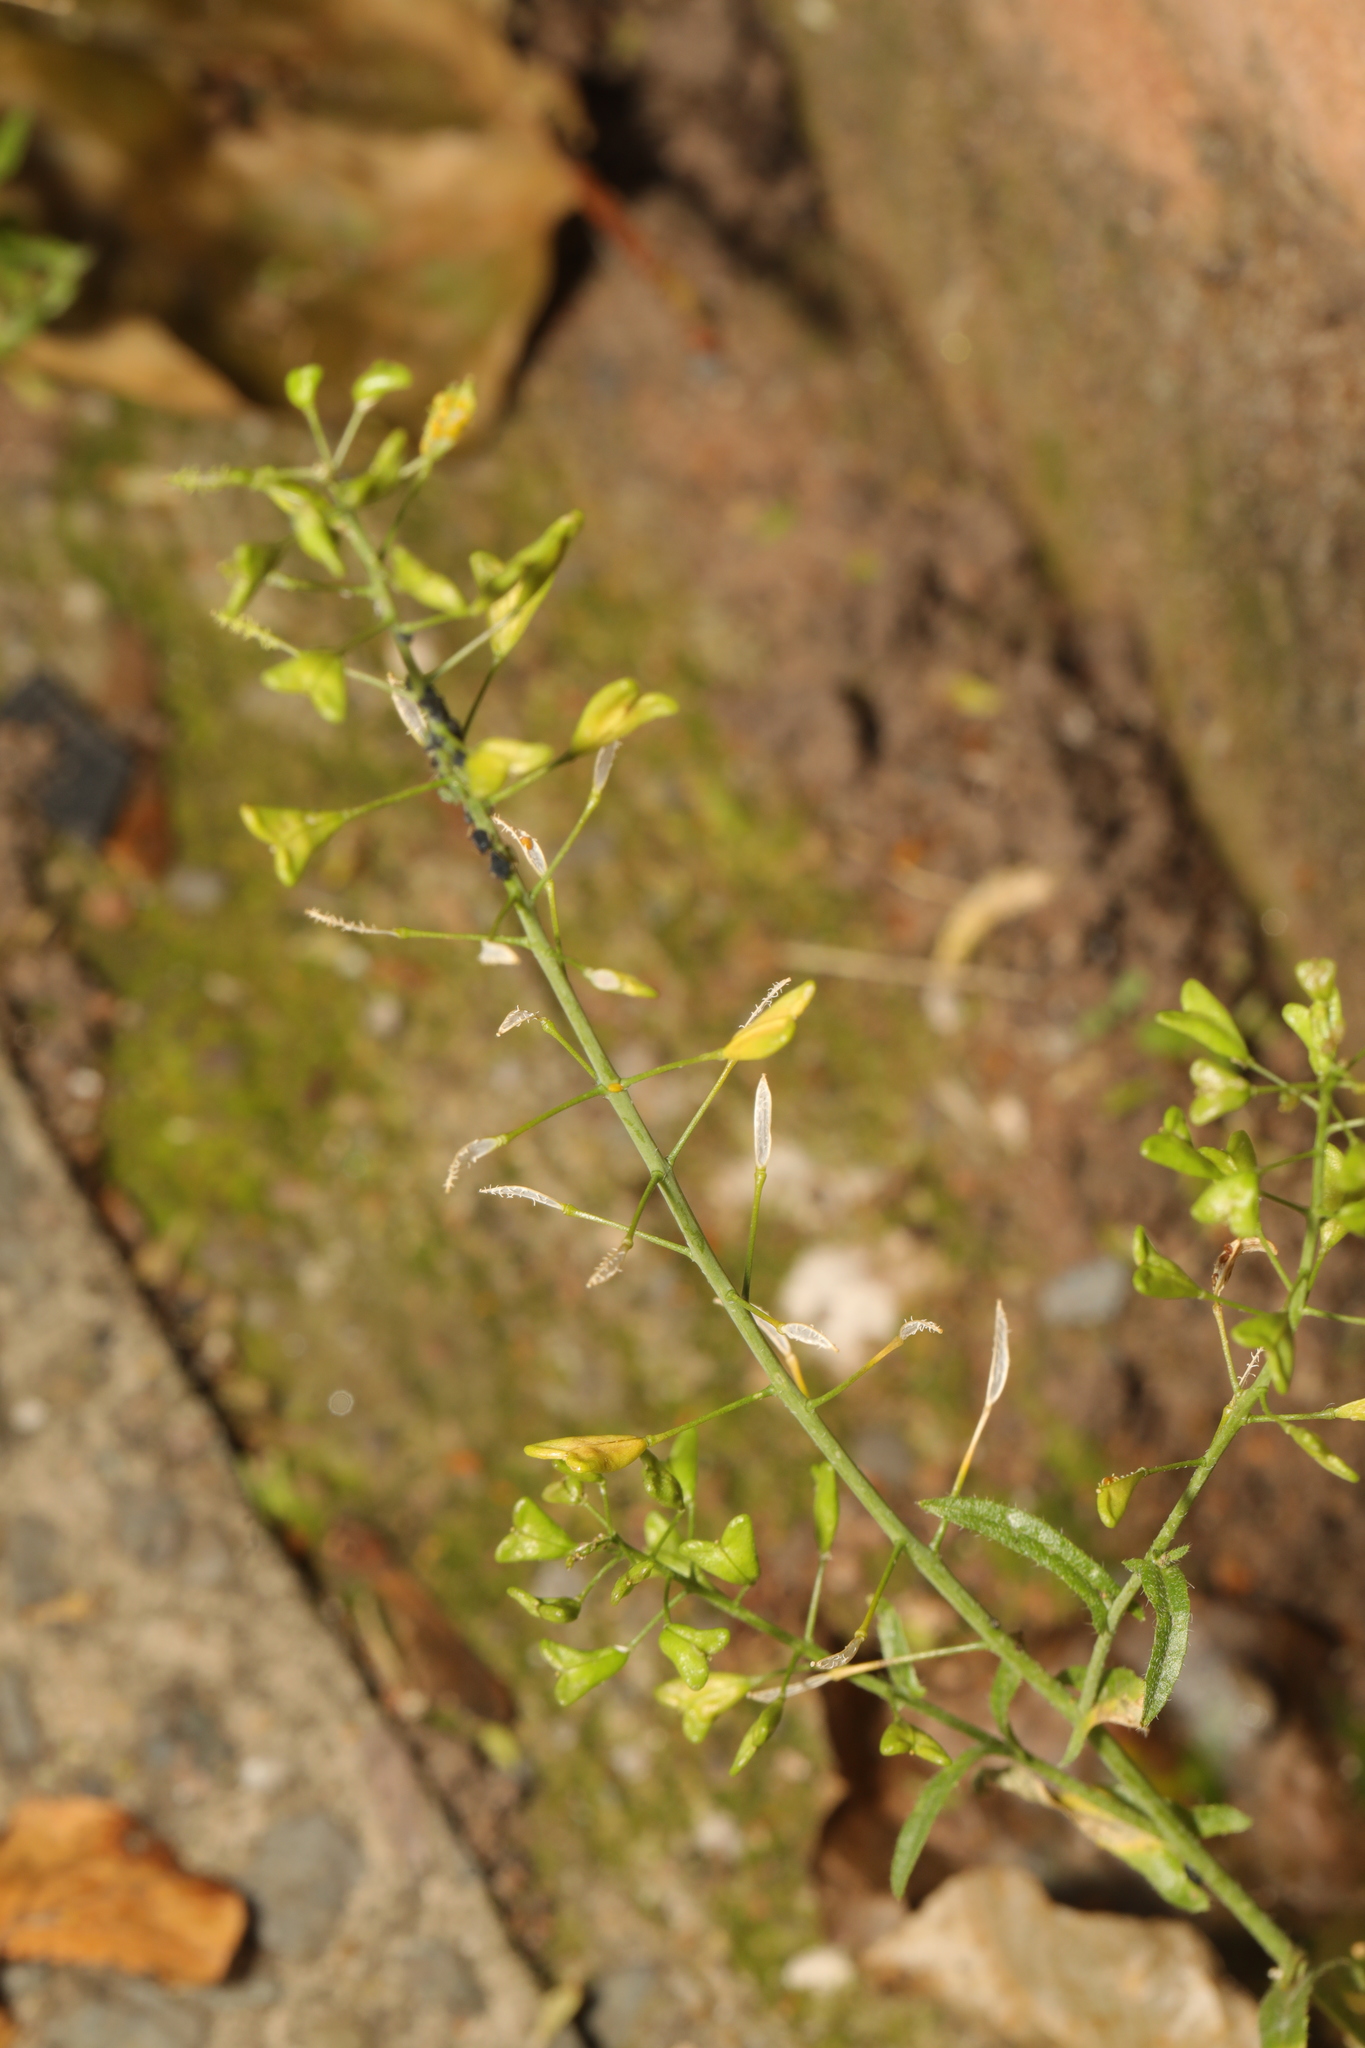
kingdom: Plantae
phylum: Tracheophyta
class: Magnoliopsida
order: Brassicales
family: Brassicaceae
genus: Capsella
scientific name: Capsella bursa-pastoris
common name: Shepherd's purse
